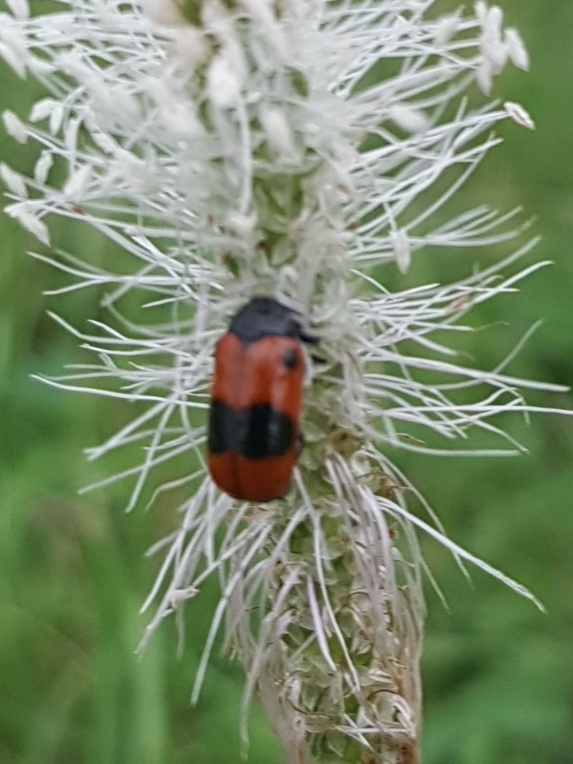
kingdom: Animalia
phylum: Arthropoda
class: Insecta
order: Coleoptera
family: Chrysomelidae
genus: Clytra
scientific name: Clytra laeviuscula
